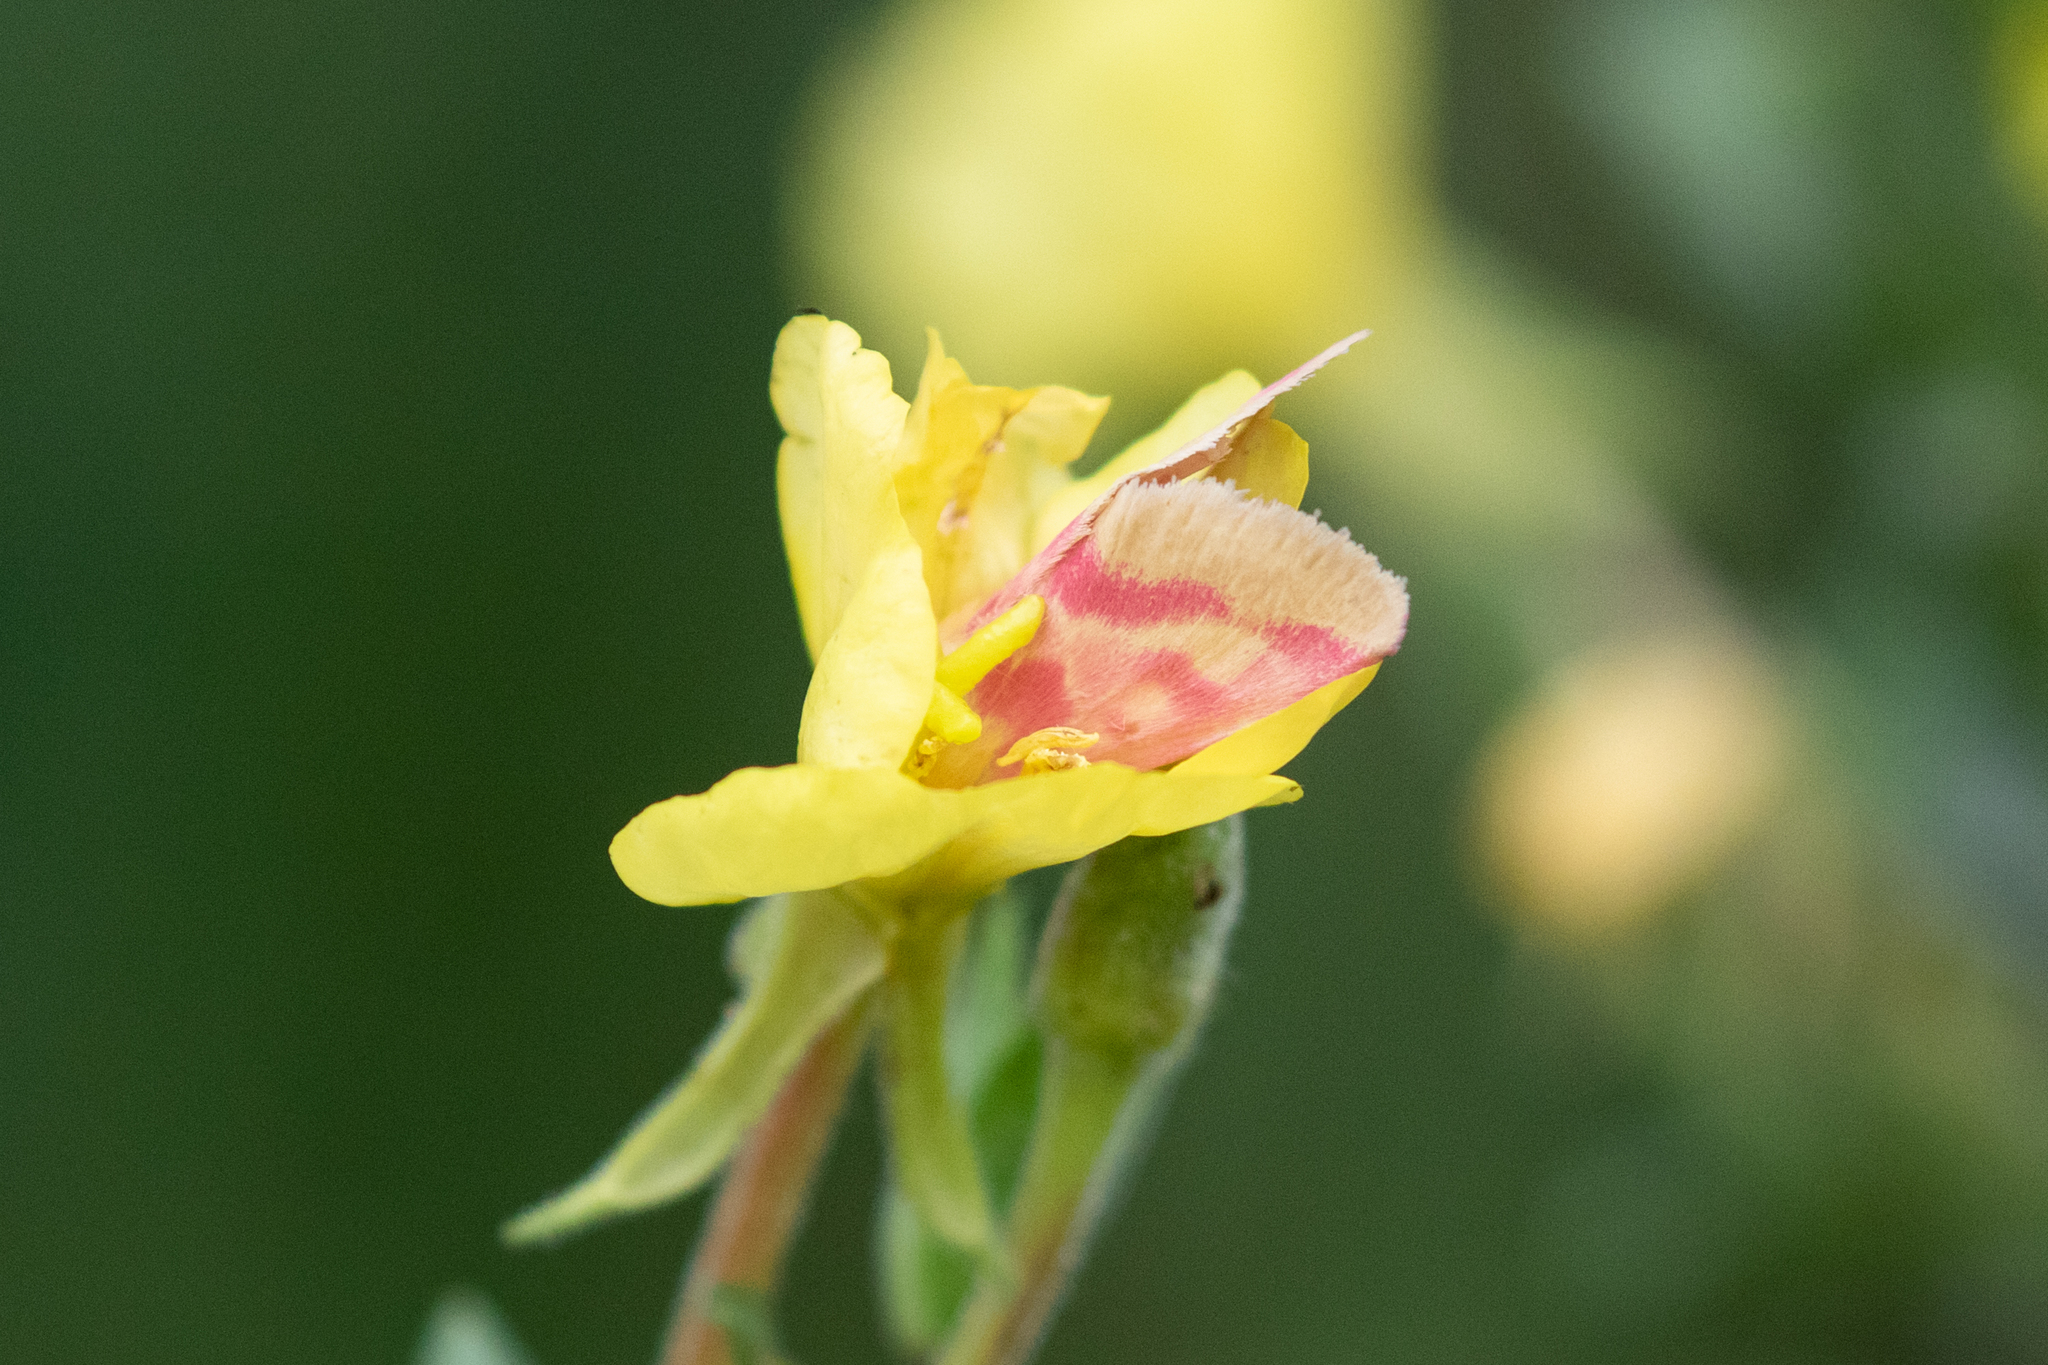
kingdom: Animalia
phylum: Arthropoda
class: Insecta
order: Lepidoptera
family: Noctuidae
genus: Schinia
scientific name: Schinia florida
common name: Primrose moth
